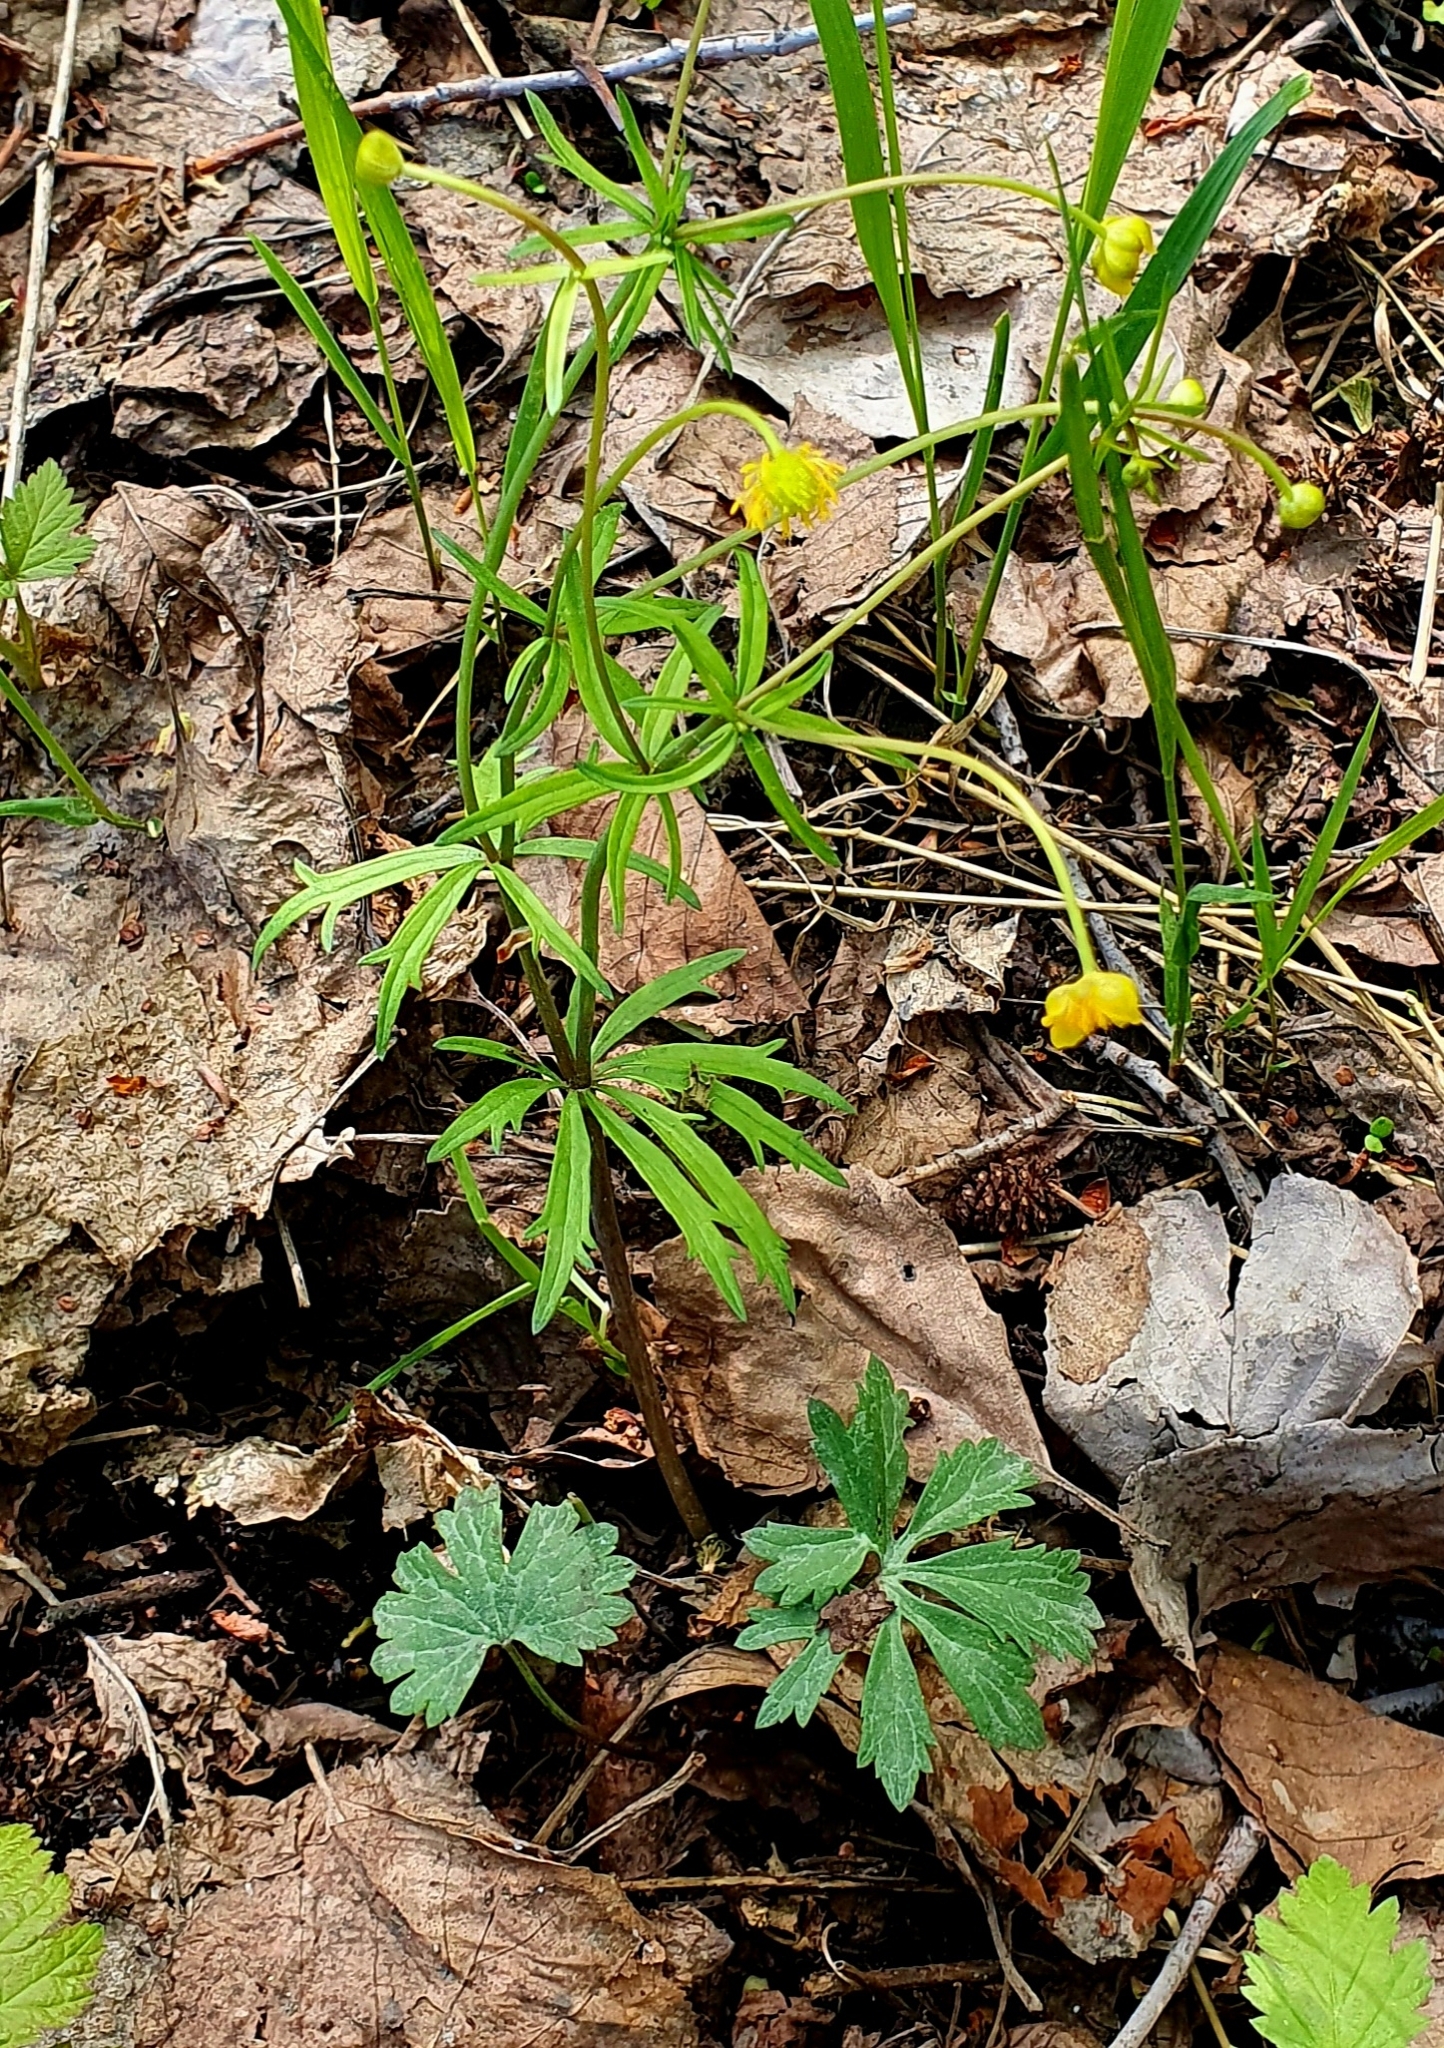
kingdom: Plantae
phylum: Tracheophyta
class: Magnoliopsida
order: Ranunculales
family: Ranunculaceae
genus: Ranunculus
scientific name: Ranunculus auricomus
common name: Goldilocks buttercup
